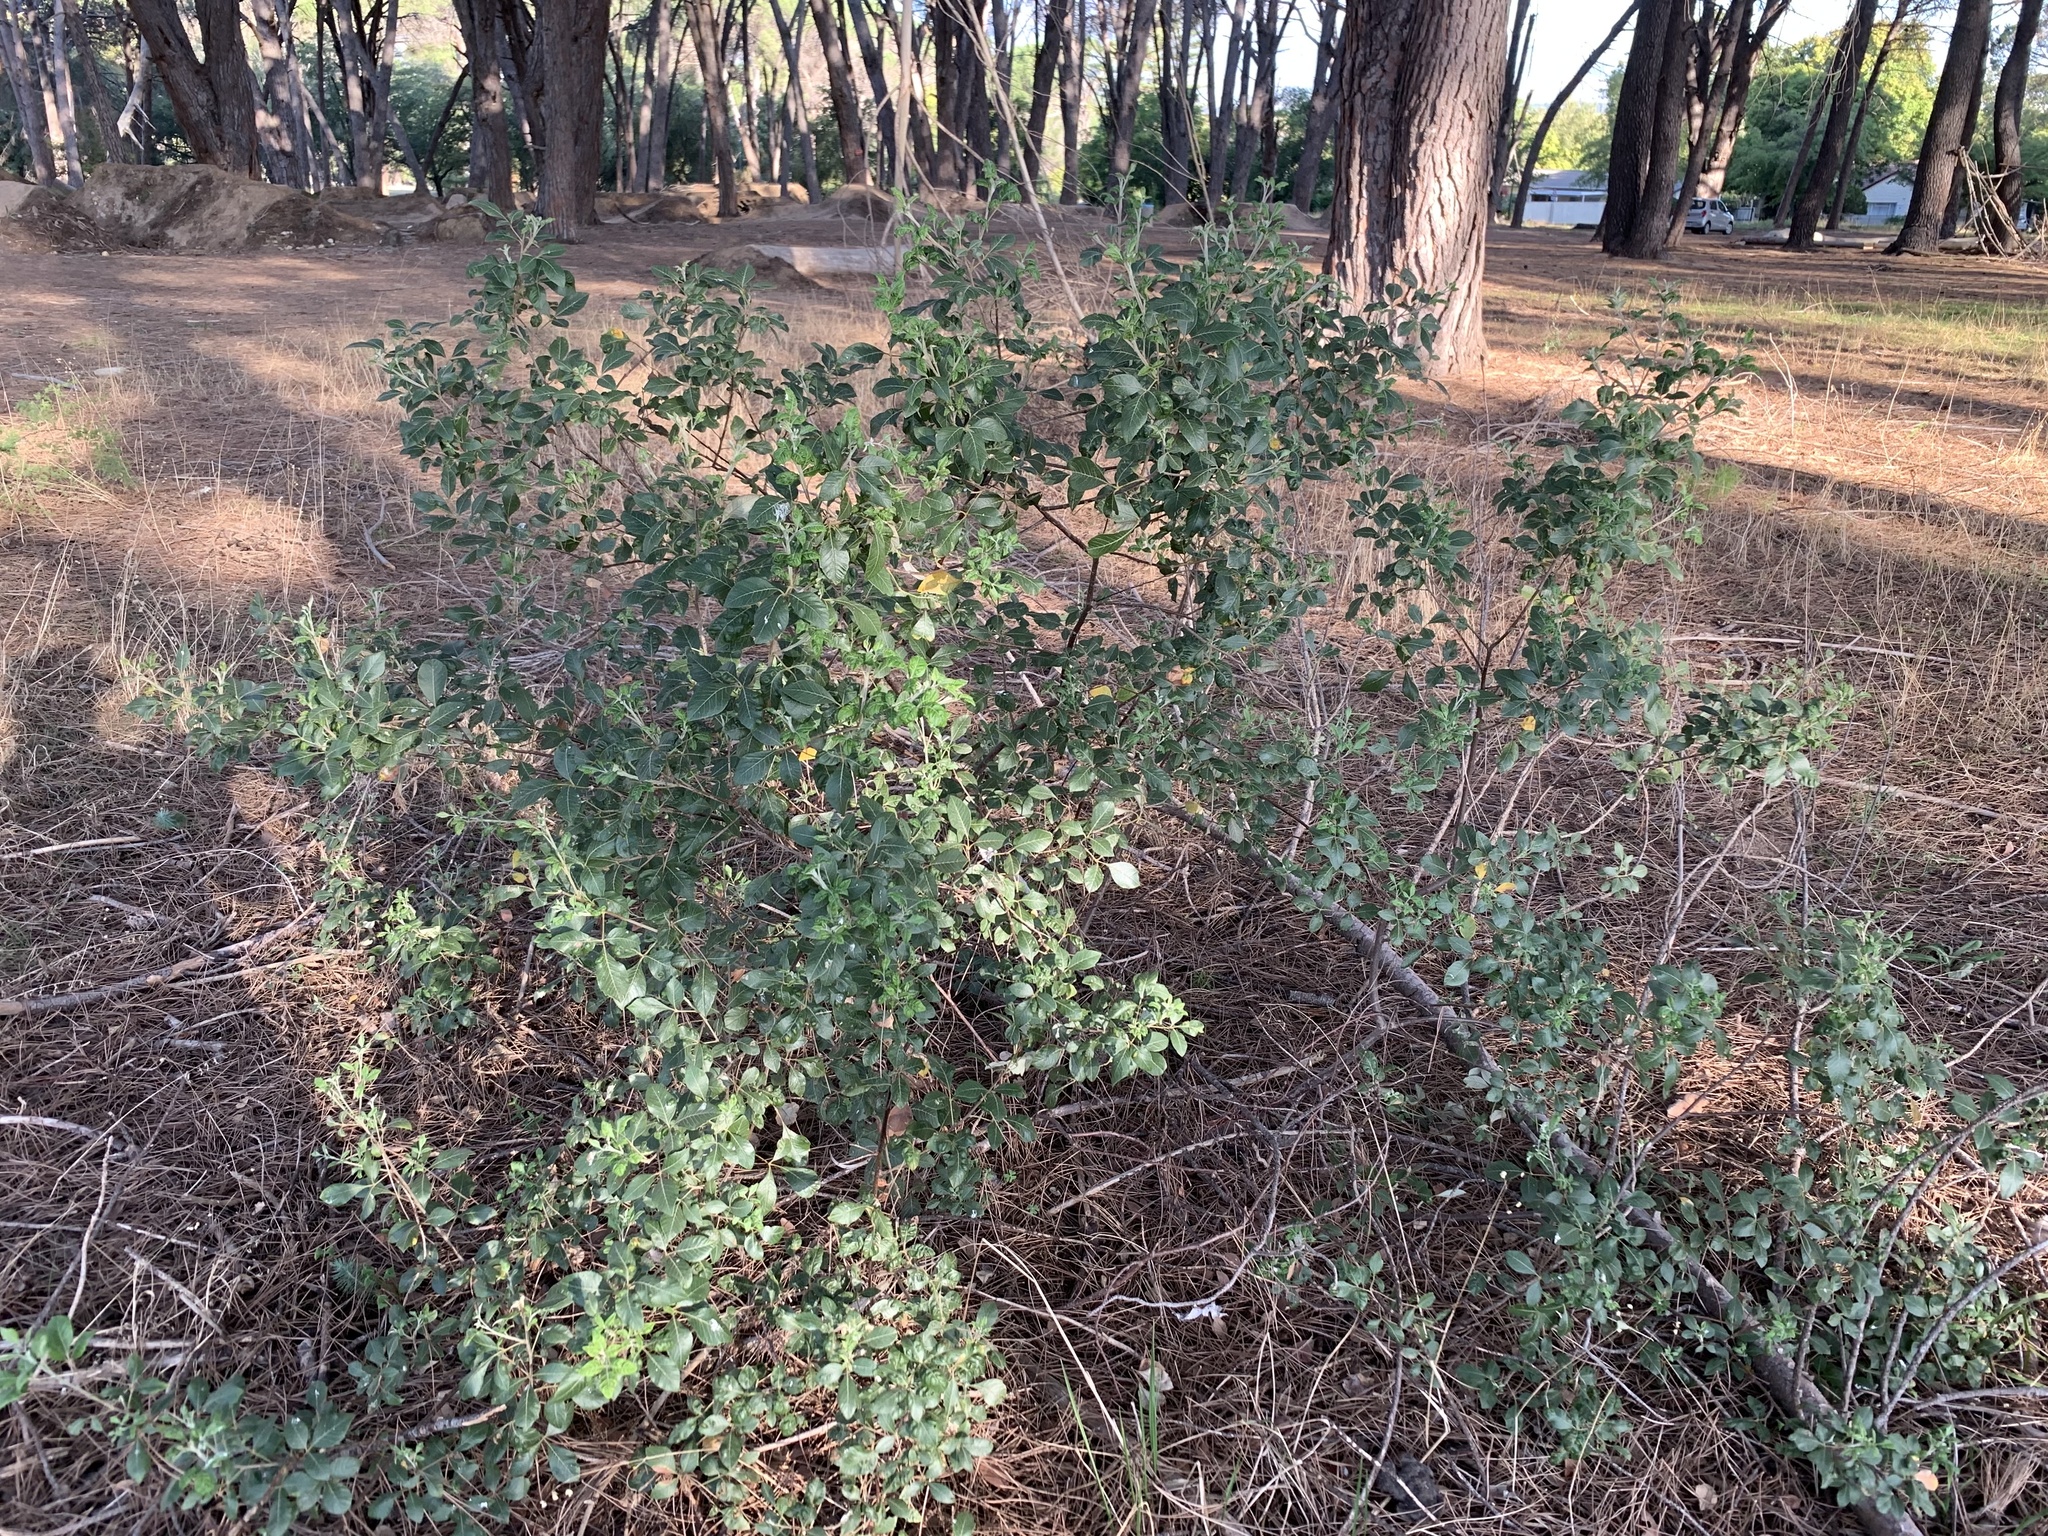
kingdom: Plantae
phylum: Tracheophyta
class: Magnoliopsida
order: Sapindales
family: Anacardiaceae
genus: Searsia
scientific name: Searsia tomentosa
